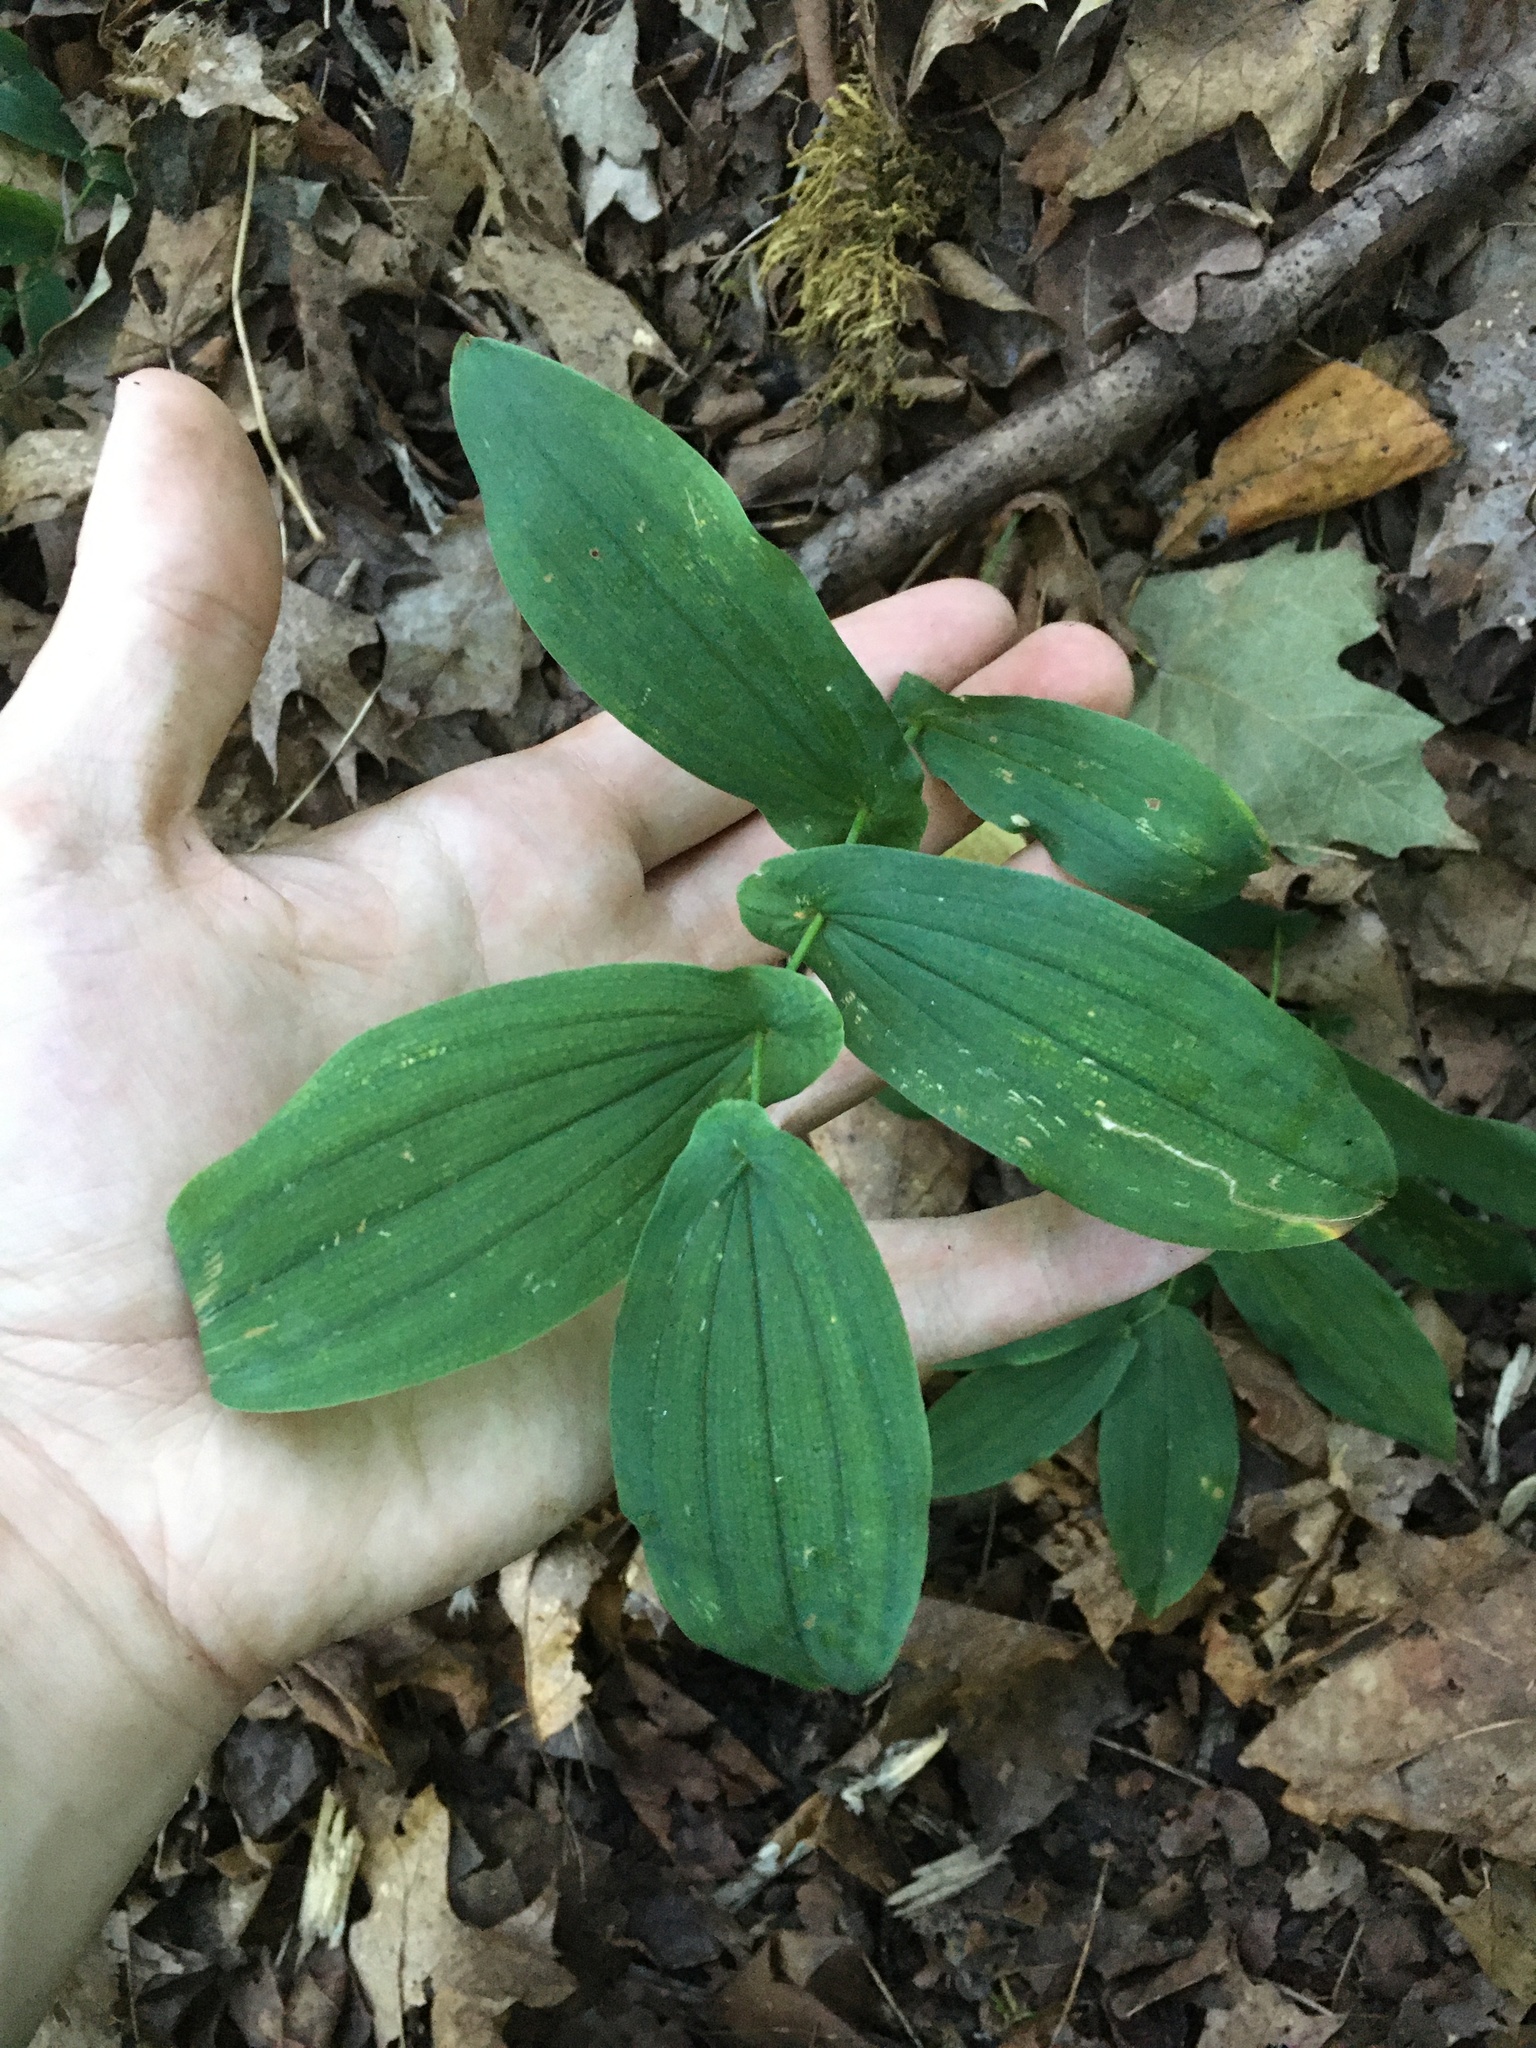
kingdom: Plantae
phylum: Tracheophyta
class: Liliopsida
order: Liliales
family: Colchicaceae
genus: Uvularia
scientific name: Uvularia grandiflora
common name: Bellwort
